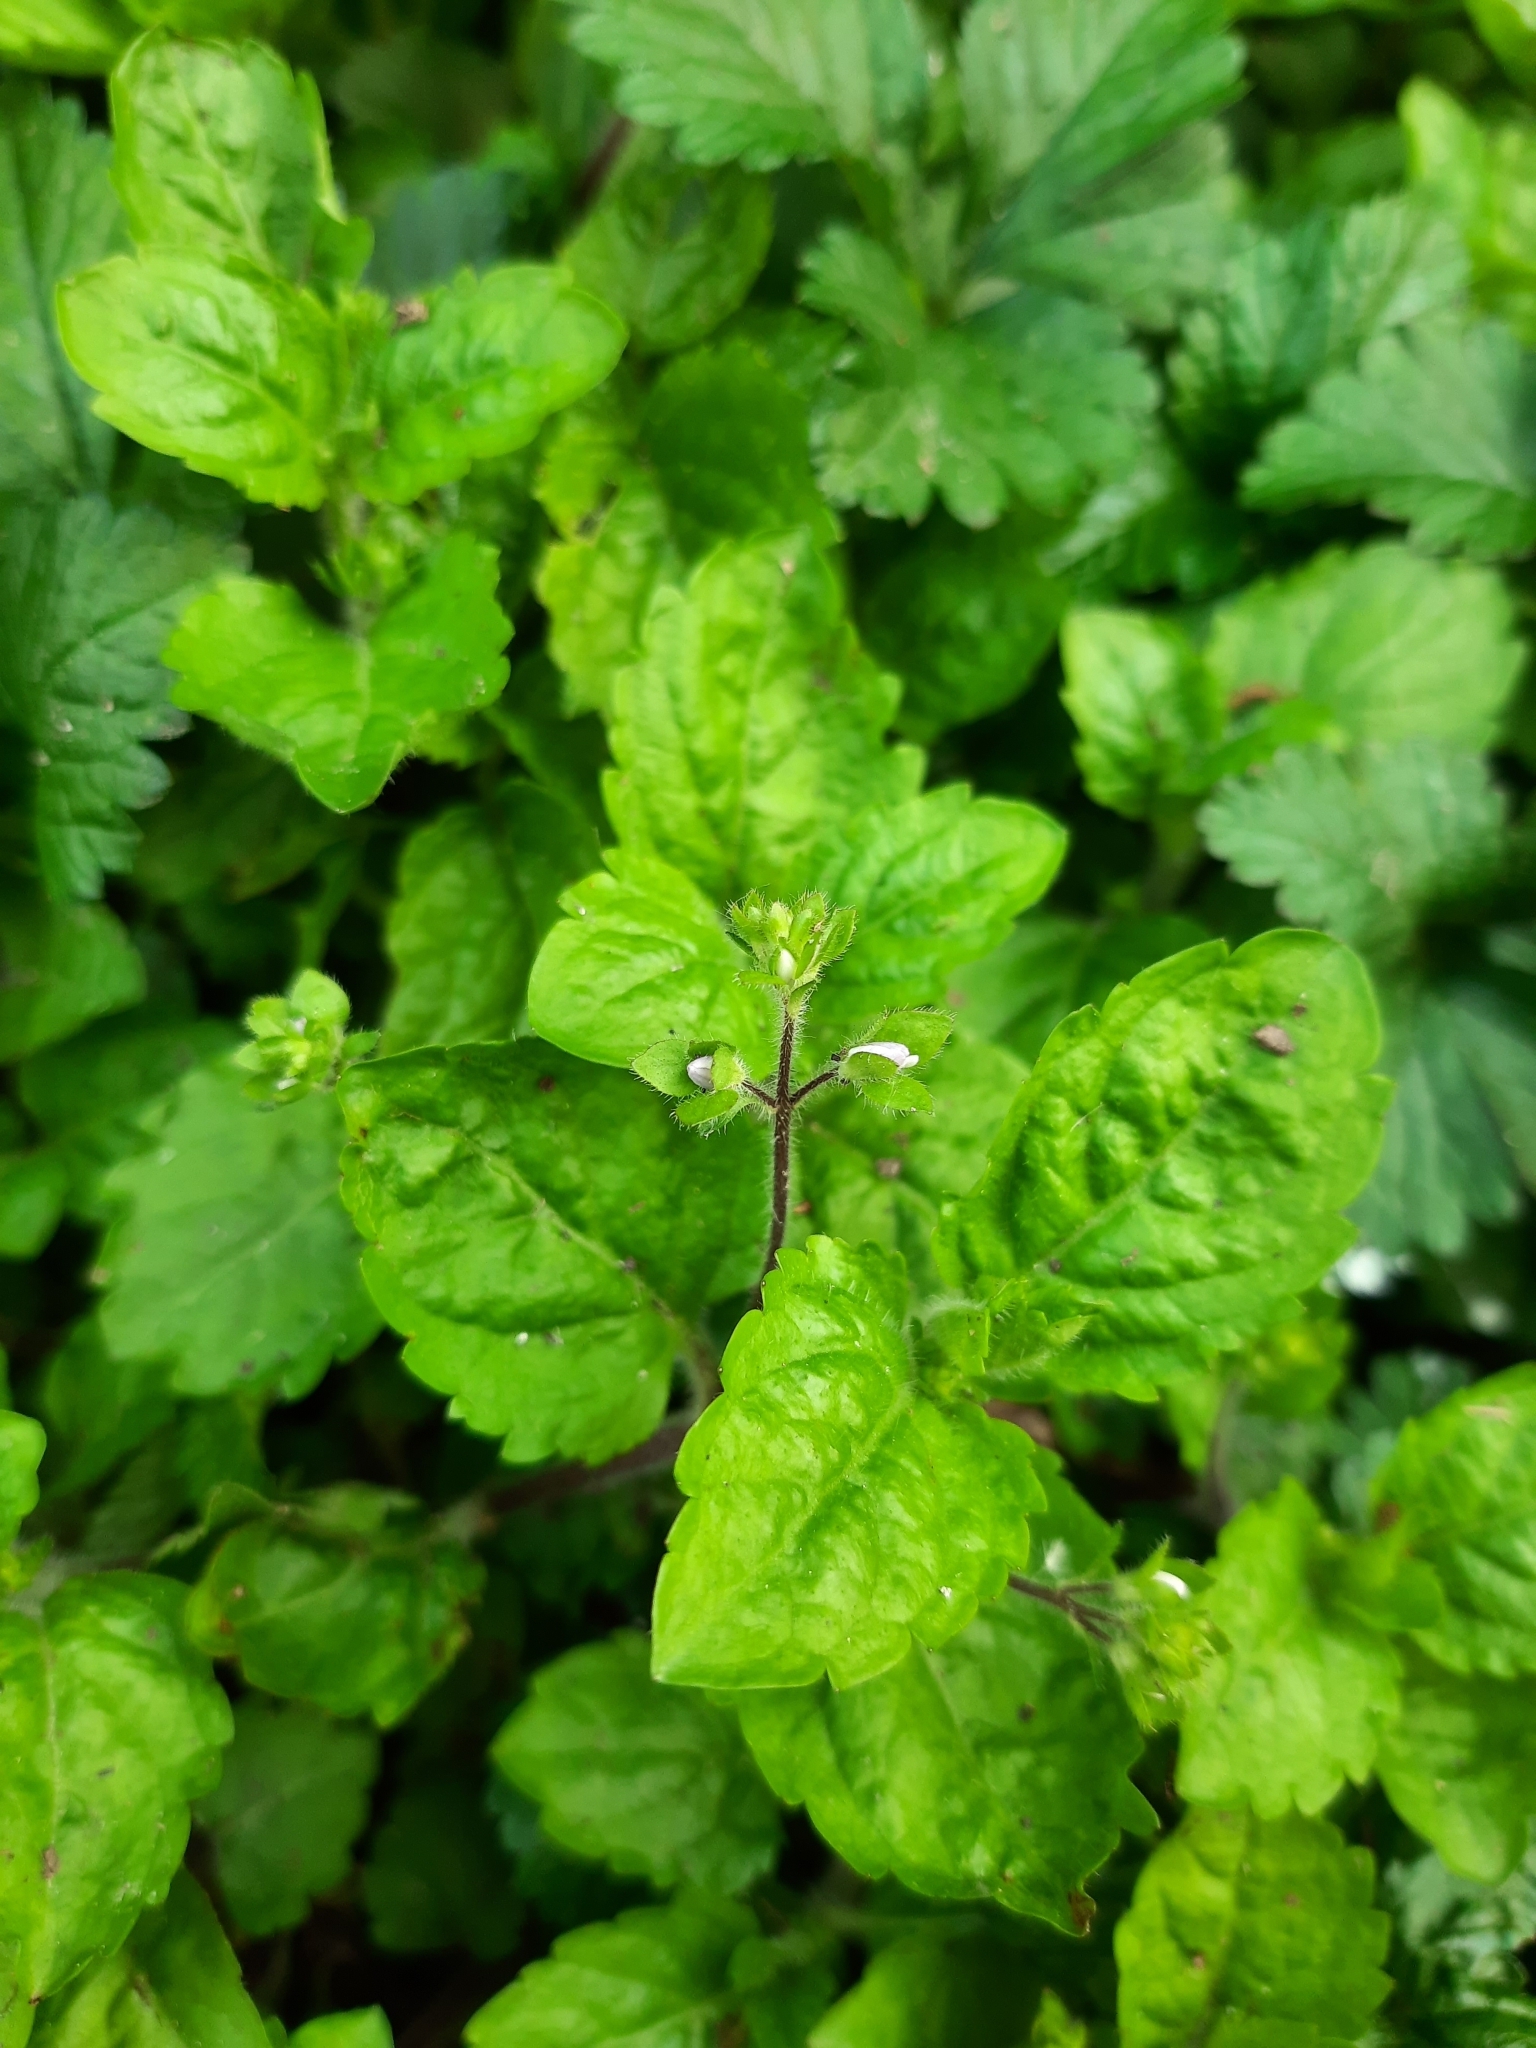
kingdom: Plantae
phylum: Tracheophyta
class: Magnoliopsida
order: Lamiales
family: Plantaginaceae
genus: Veronica
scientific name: Veronica montana
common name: Wood speedwell
